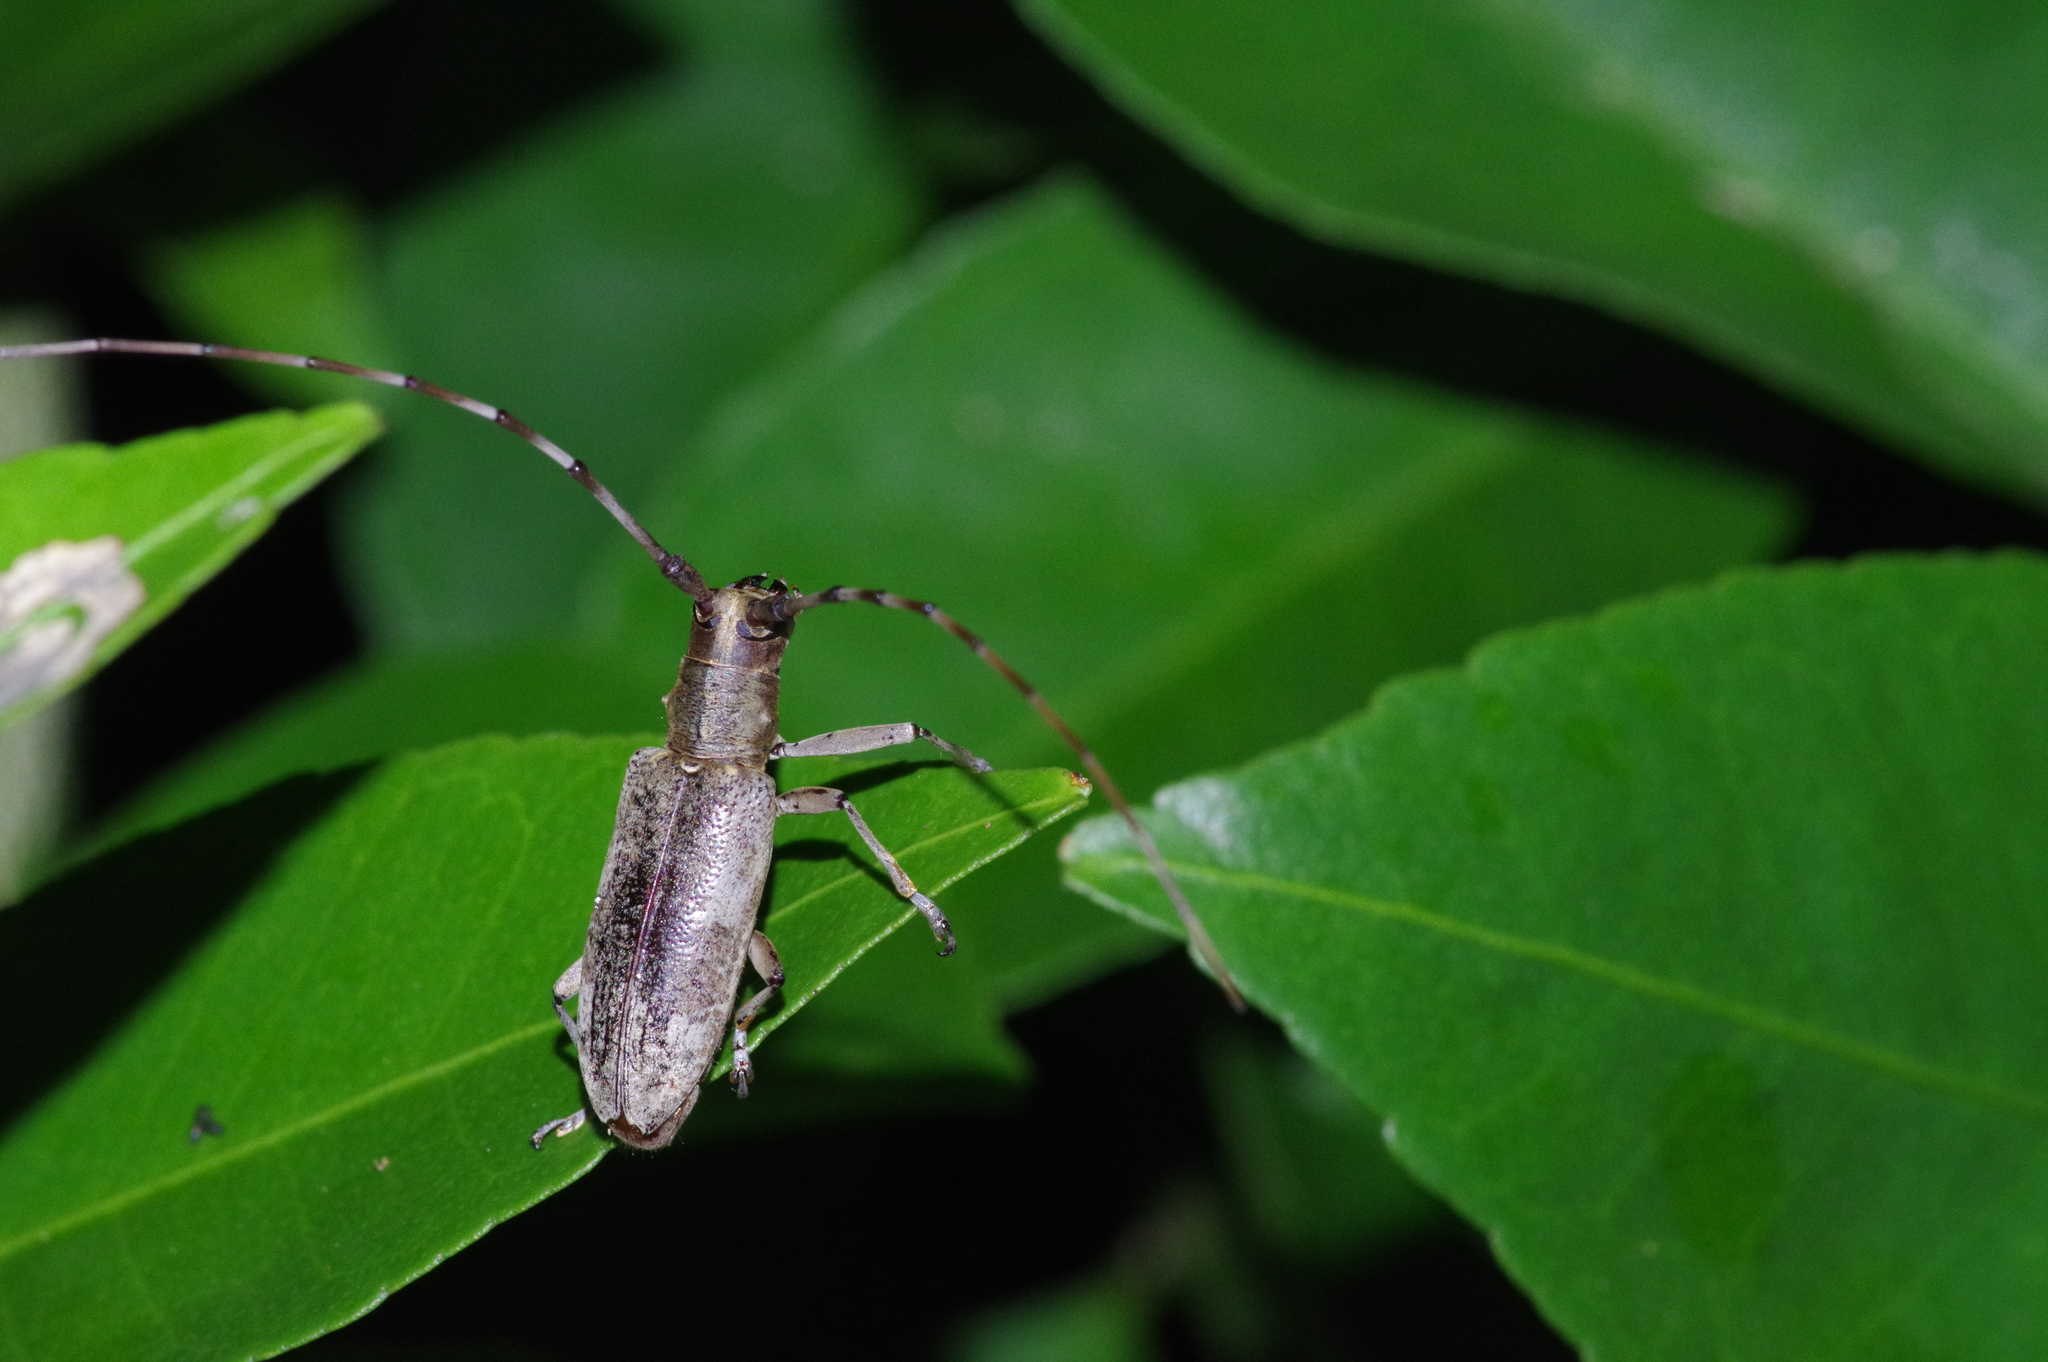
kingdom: Animalia
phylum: Arthropoda
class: Insecta
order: Coleoptera
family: Cerambycidae
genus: Psacothea
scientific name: Psacothea hilaris
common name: Yellow-spotted longicorn beetle
